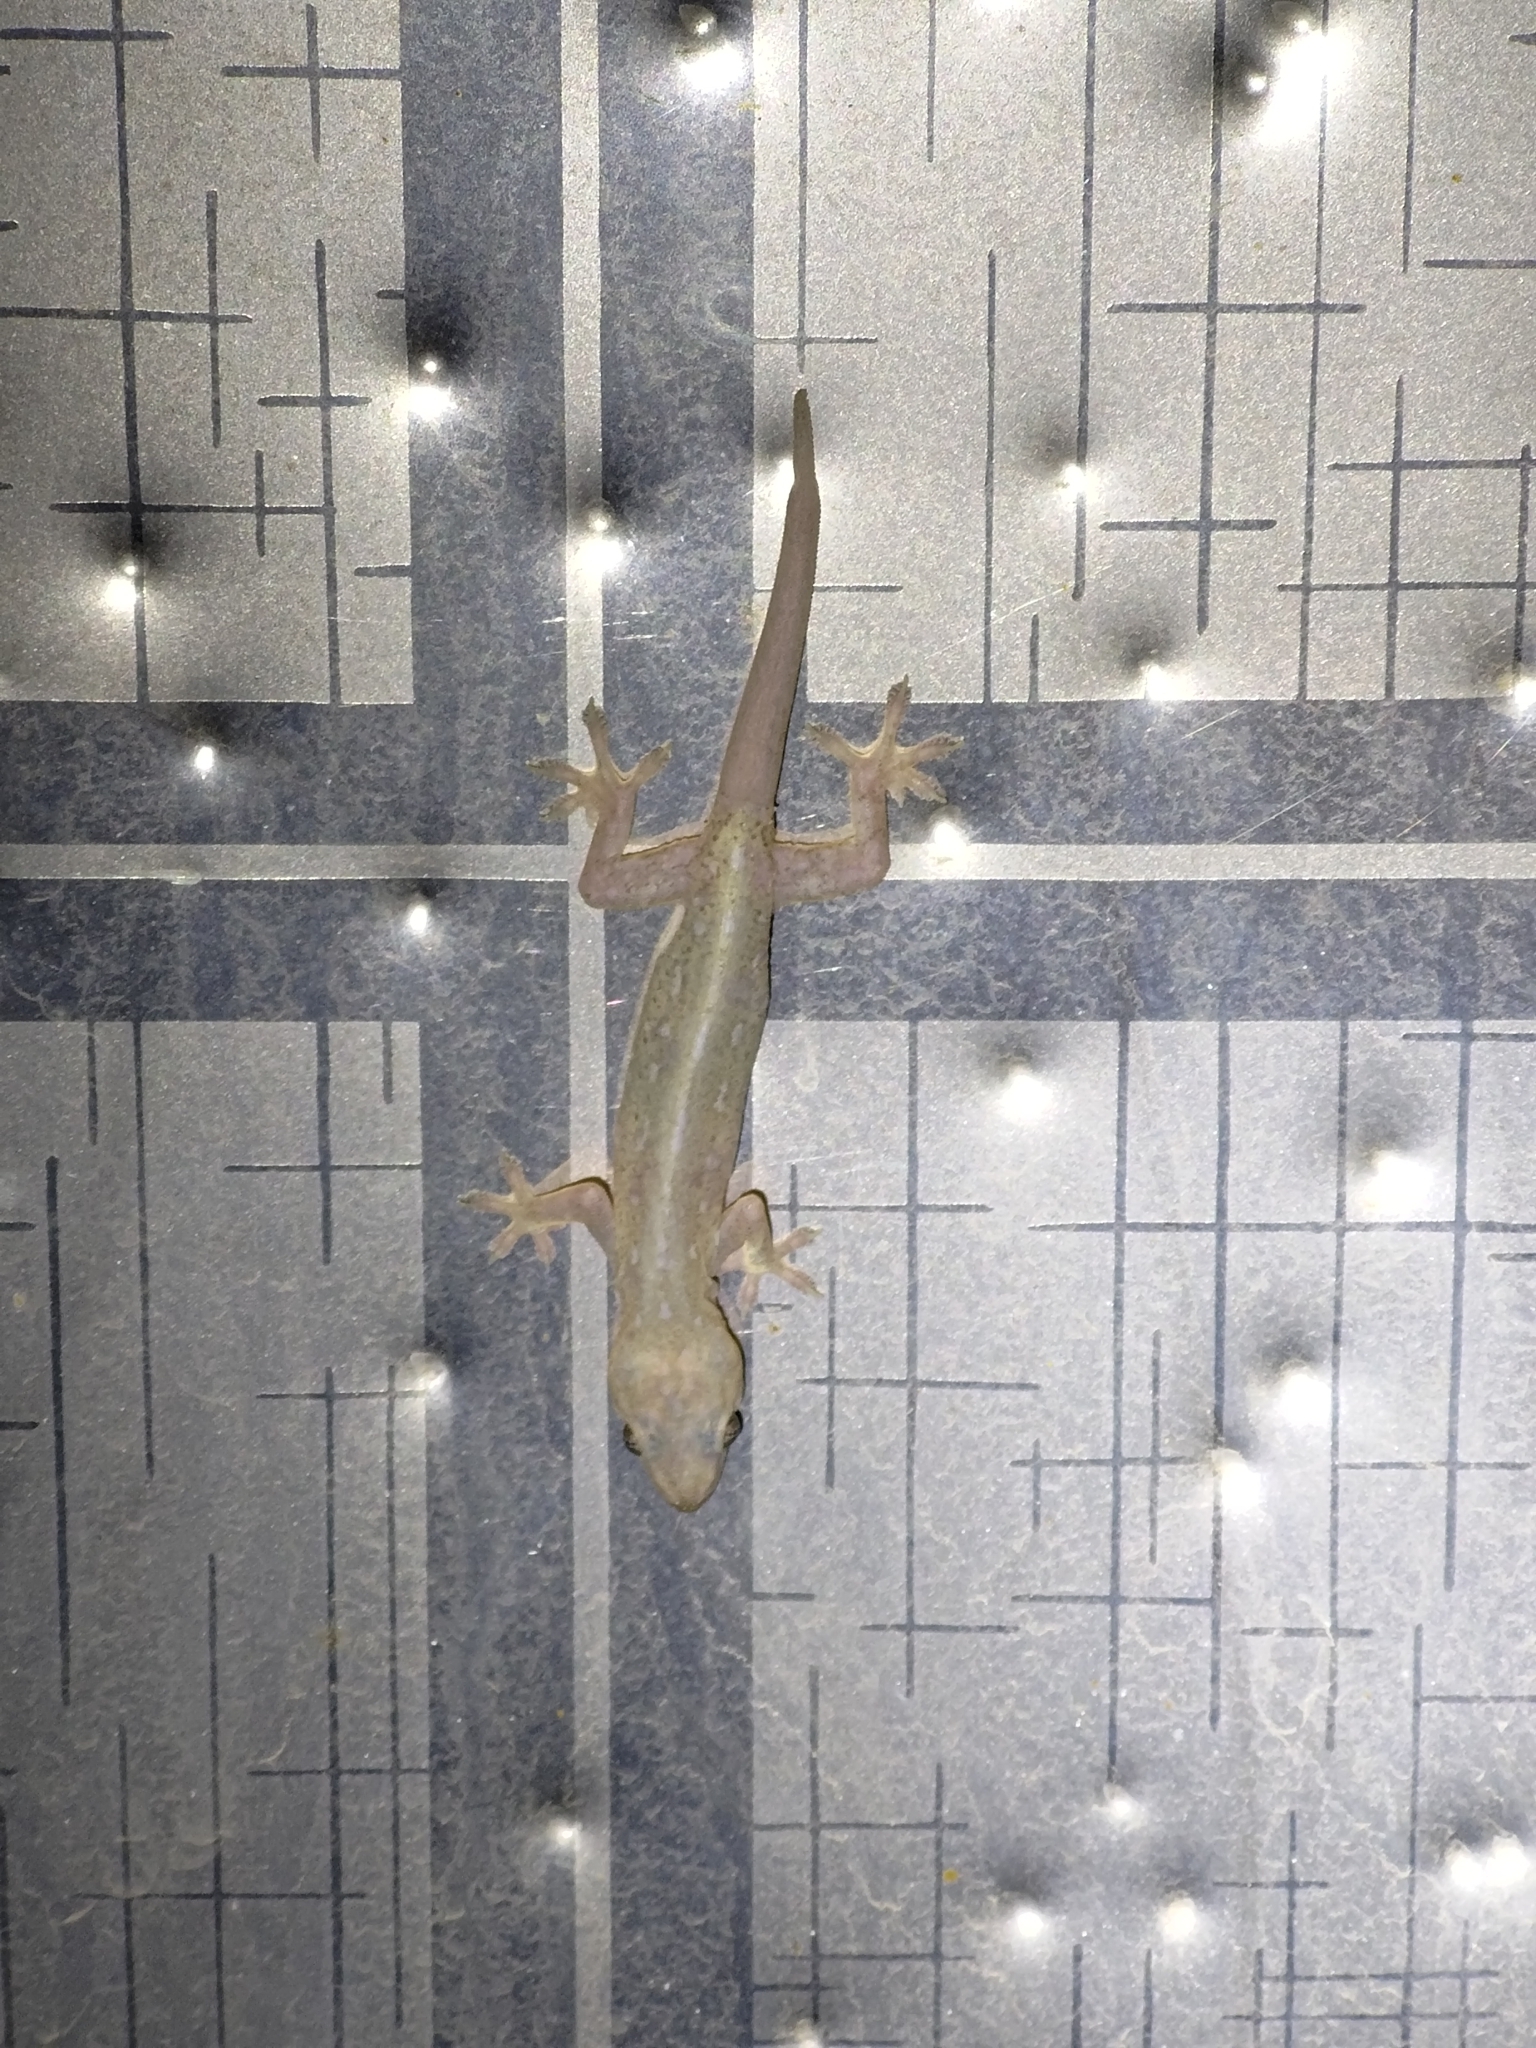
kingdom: Animalia
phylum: Chordata
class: Squamata
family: Gekkonidae
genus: Hemidactylus
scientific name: Hemidactylus frenatus
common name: Common house gecko
